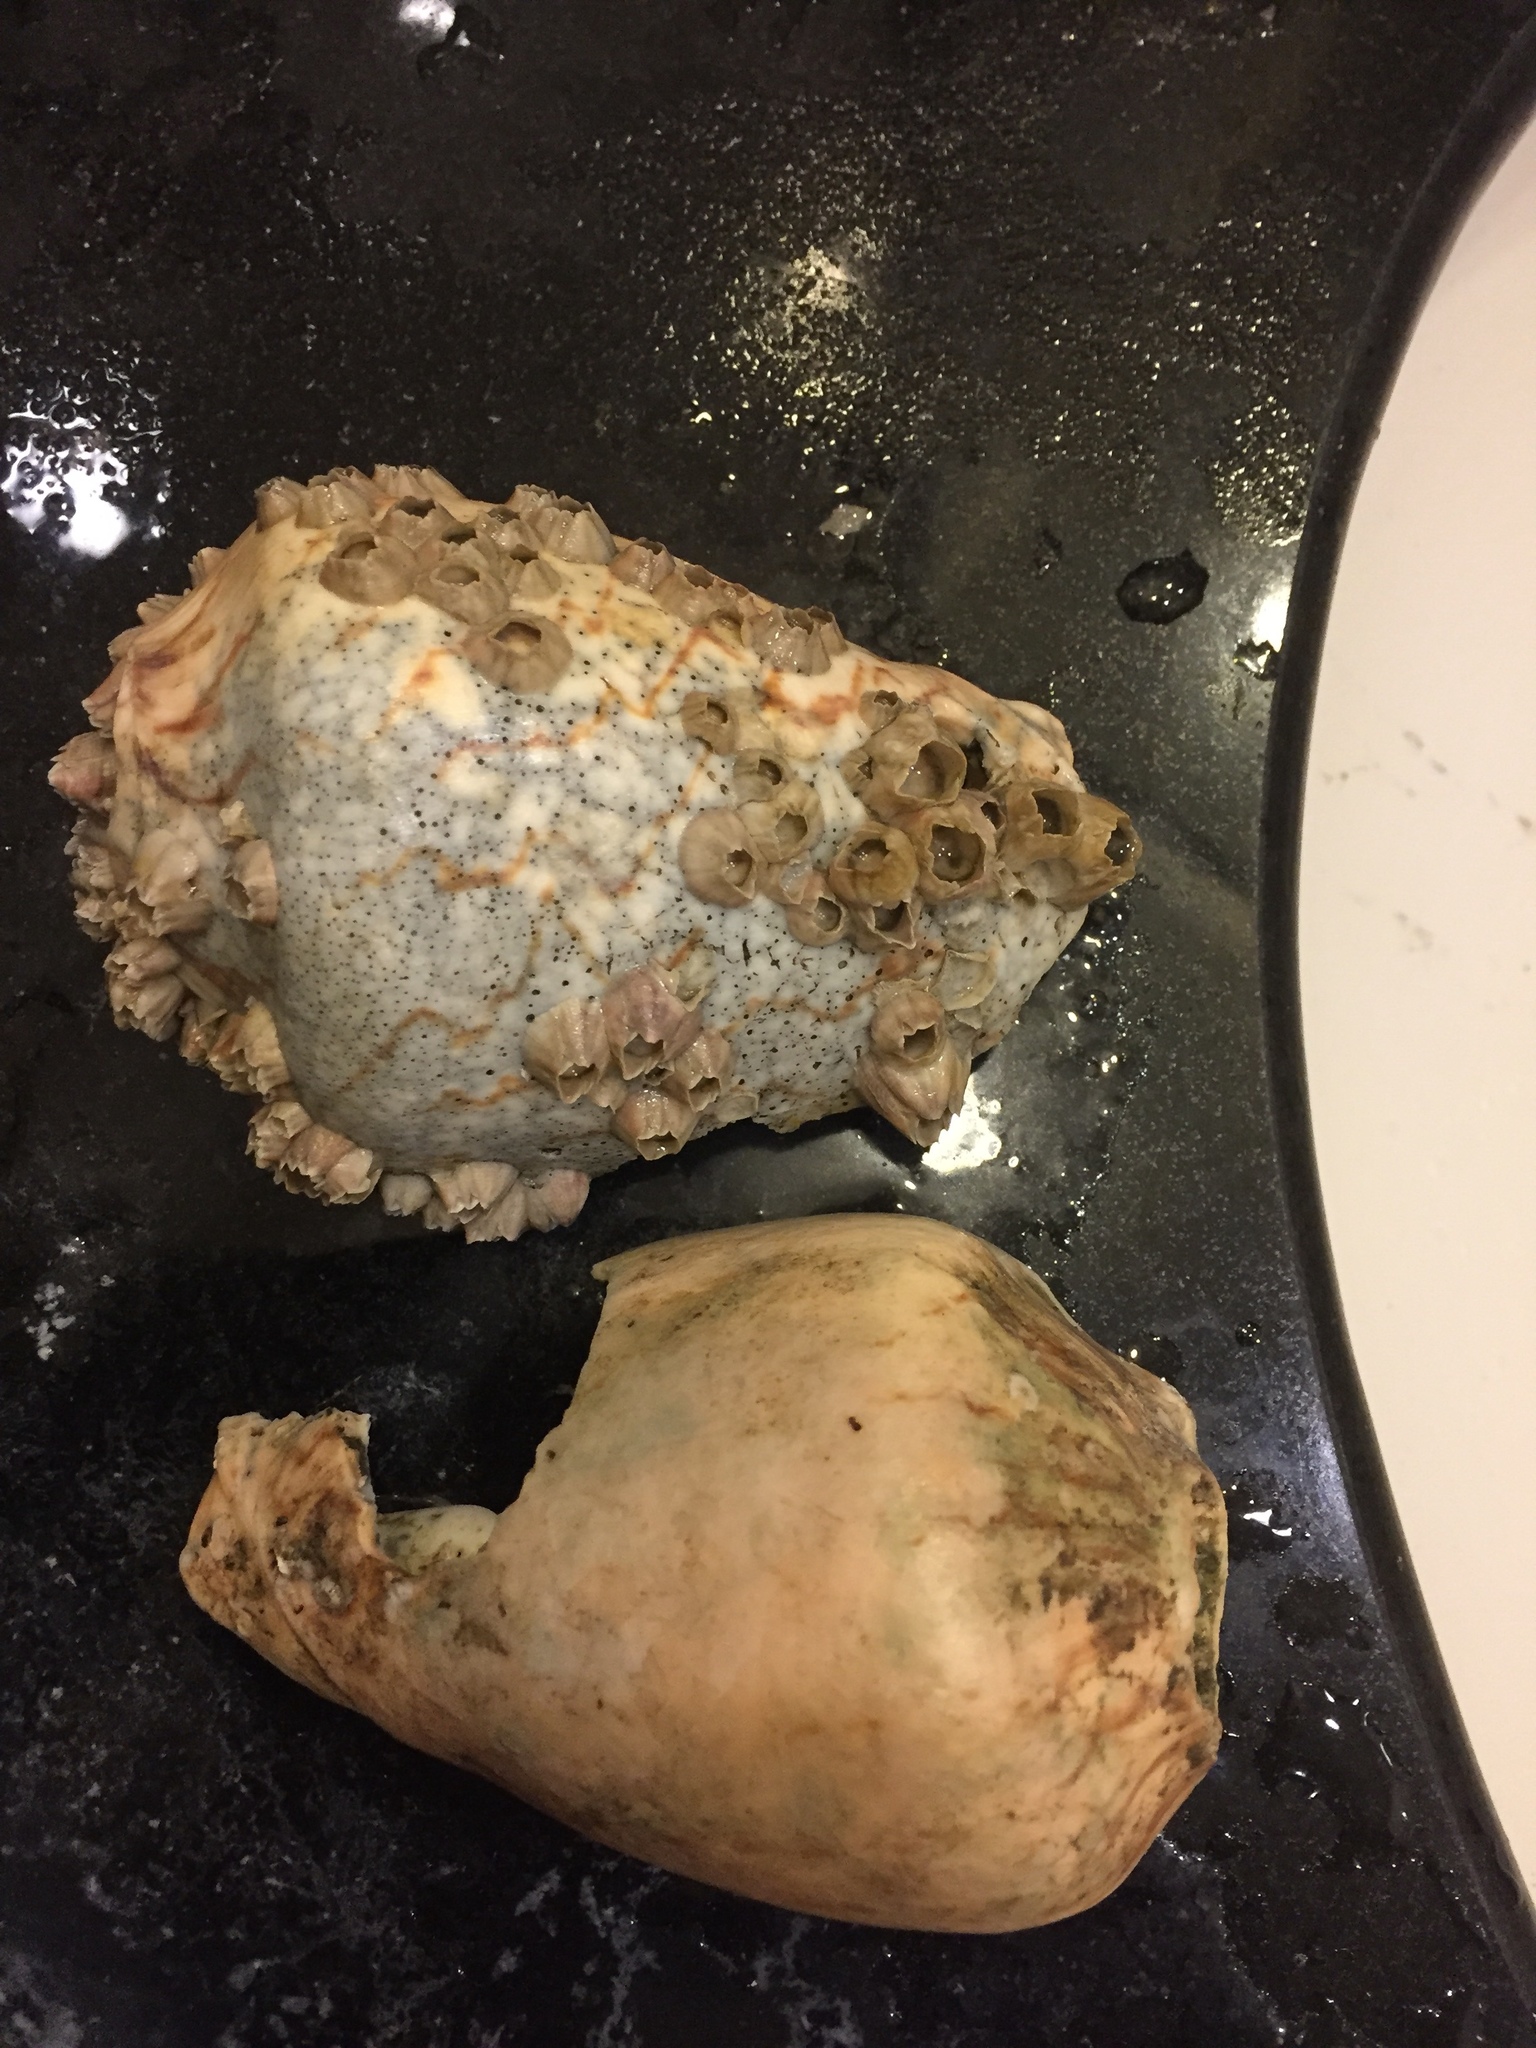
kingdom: Animalia
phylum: Mollusca
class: Gastropoda
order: Neogastropoda
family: Volutidae
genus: Cymbiola
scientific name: Cymbiola nobilis
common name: Noble volute
